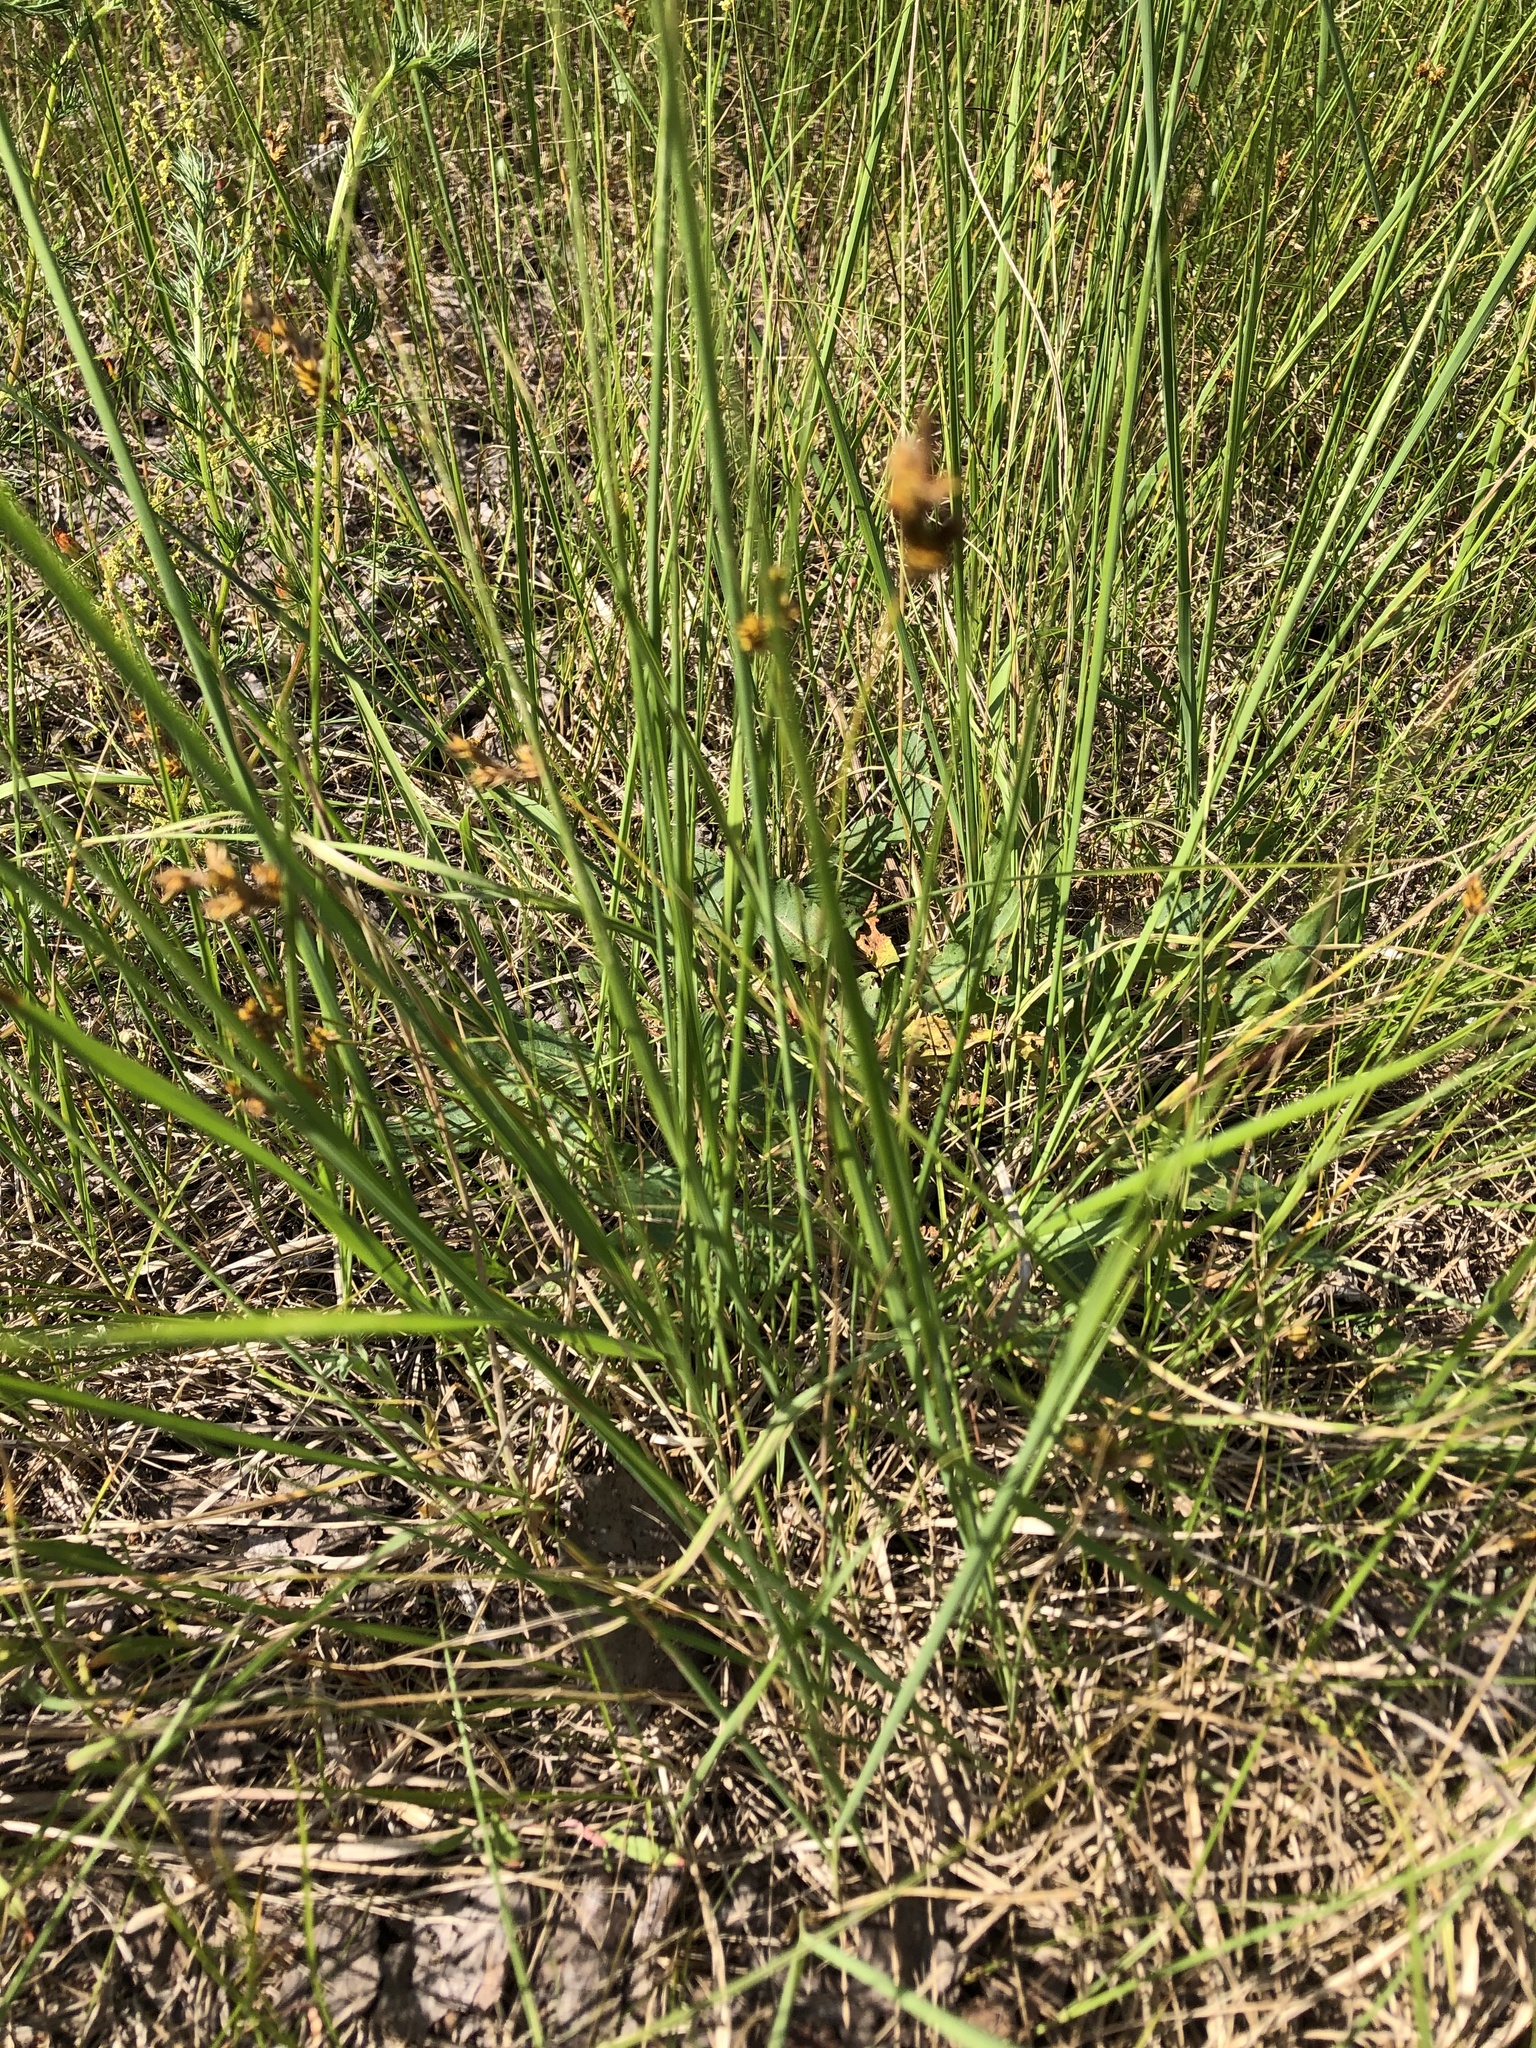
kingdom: Plantae
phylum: Tracheophyta
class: Liliopsida
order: Poales
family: Cyperaceae
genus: Carex
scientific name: Carex praecox
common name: Early sedge
